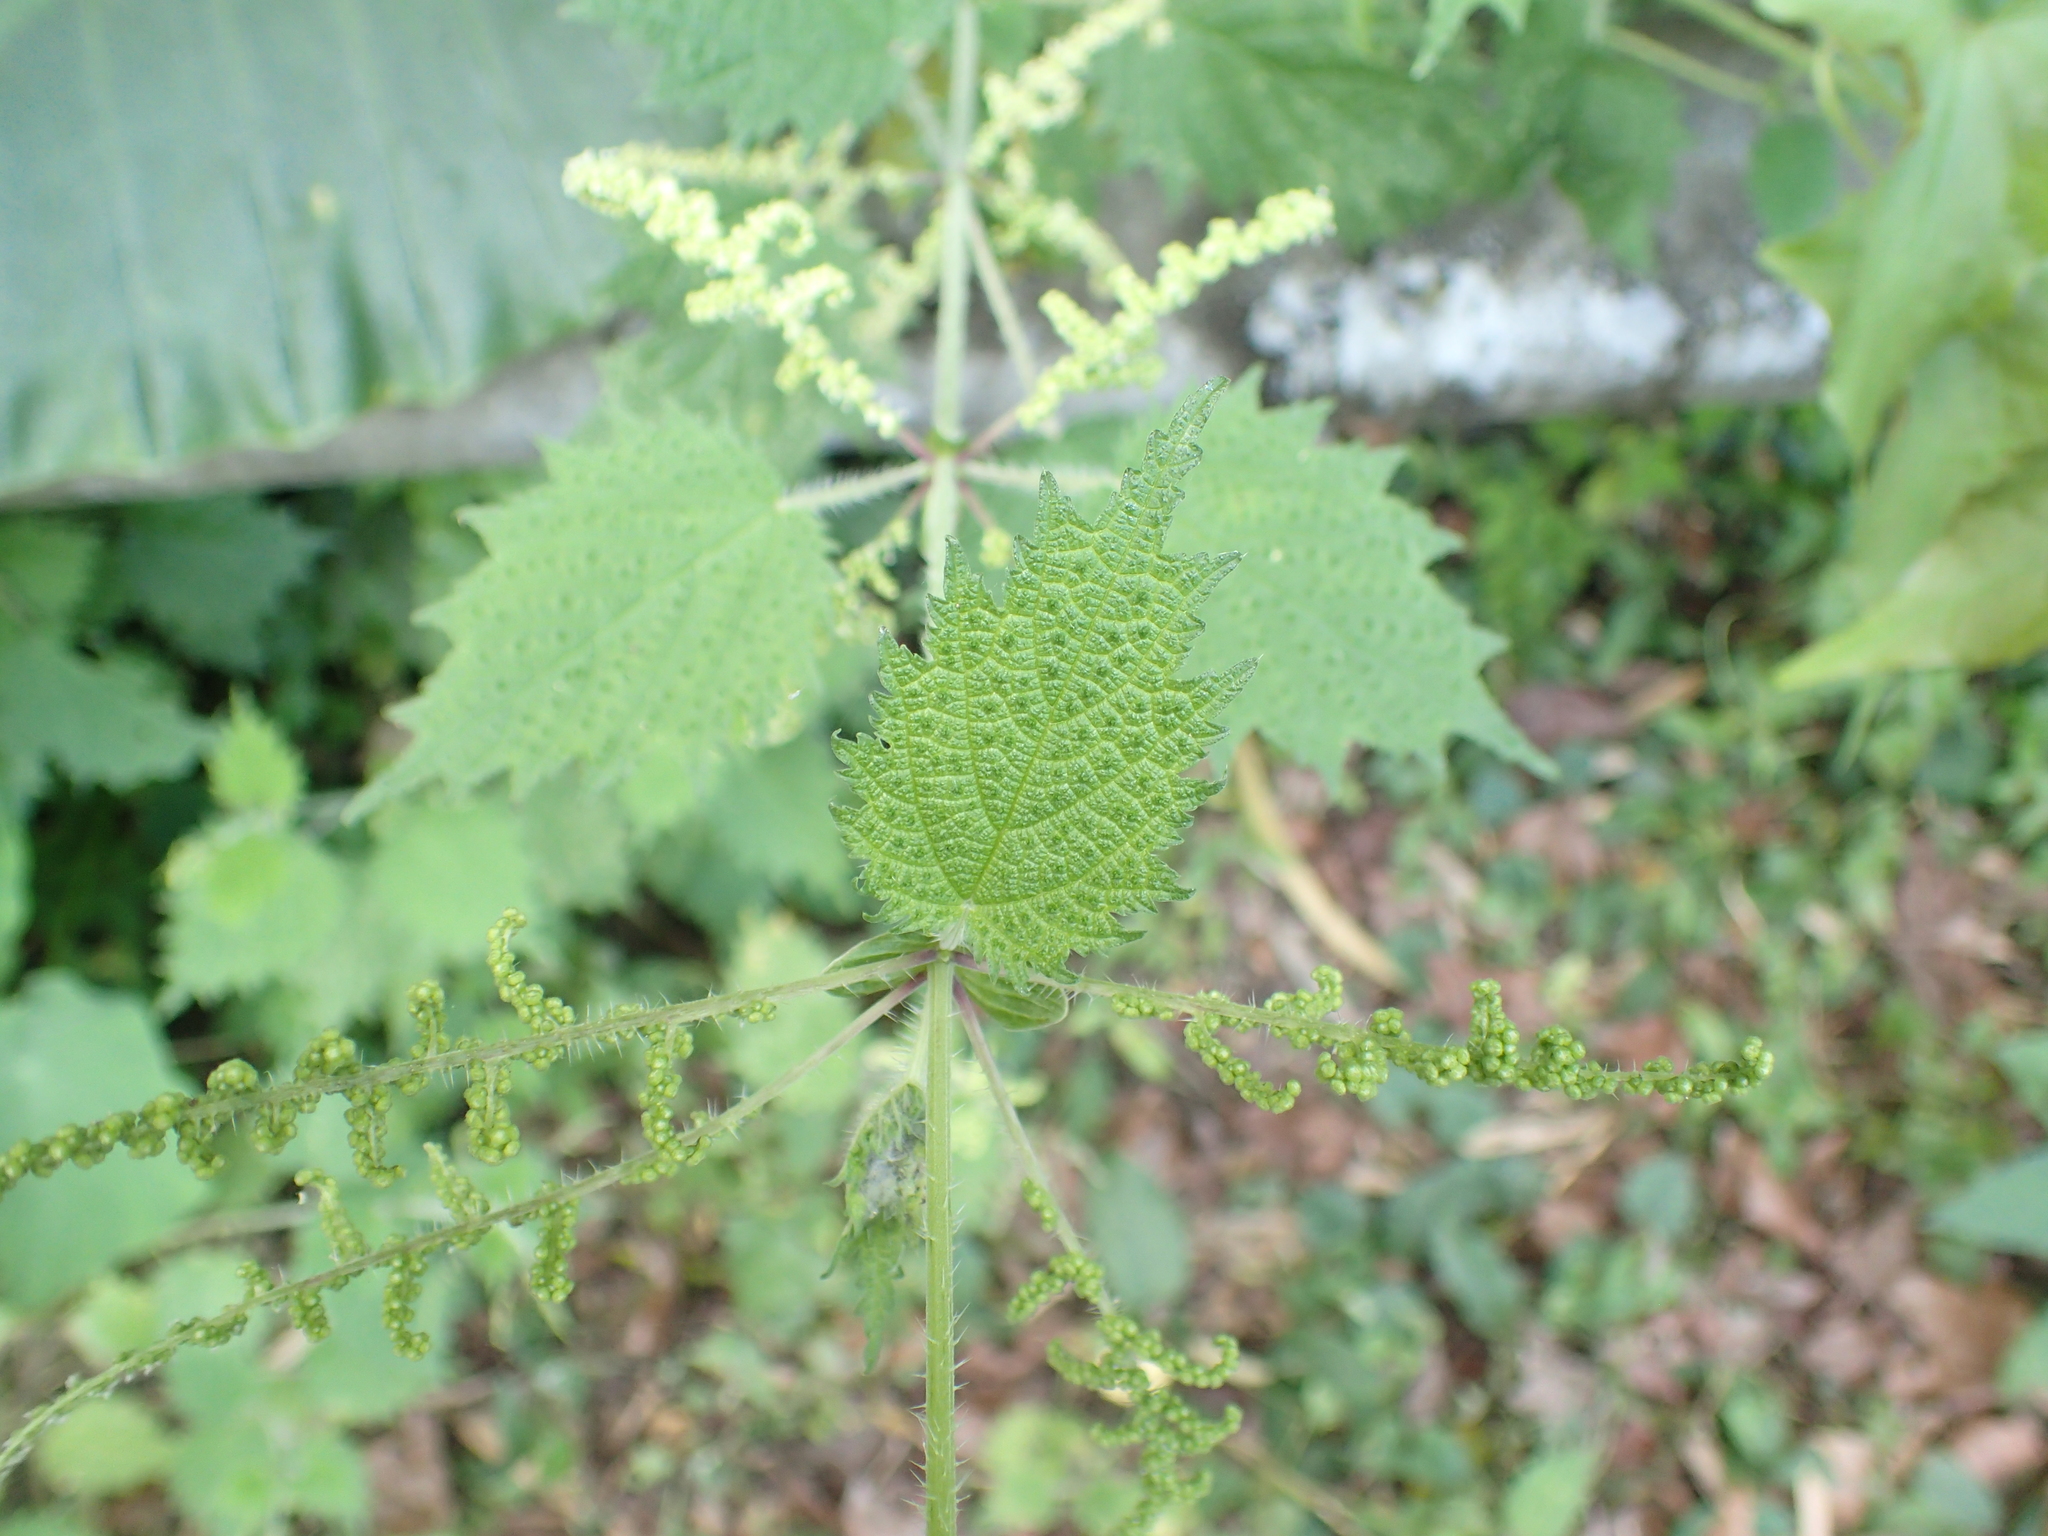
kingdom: Plantae
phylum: Tracheophyta
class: Magnoliopsida
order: Rosales
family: Urticaceae
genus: Urtica
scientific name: Urtica thunbergiana
